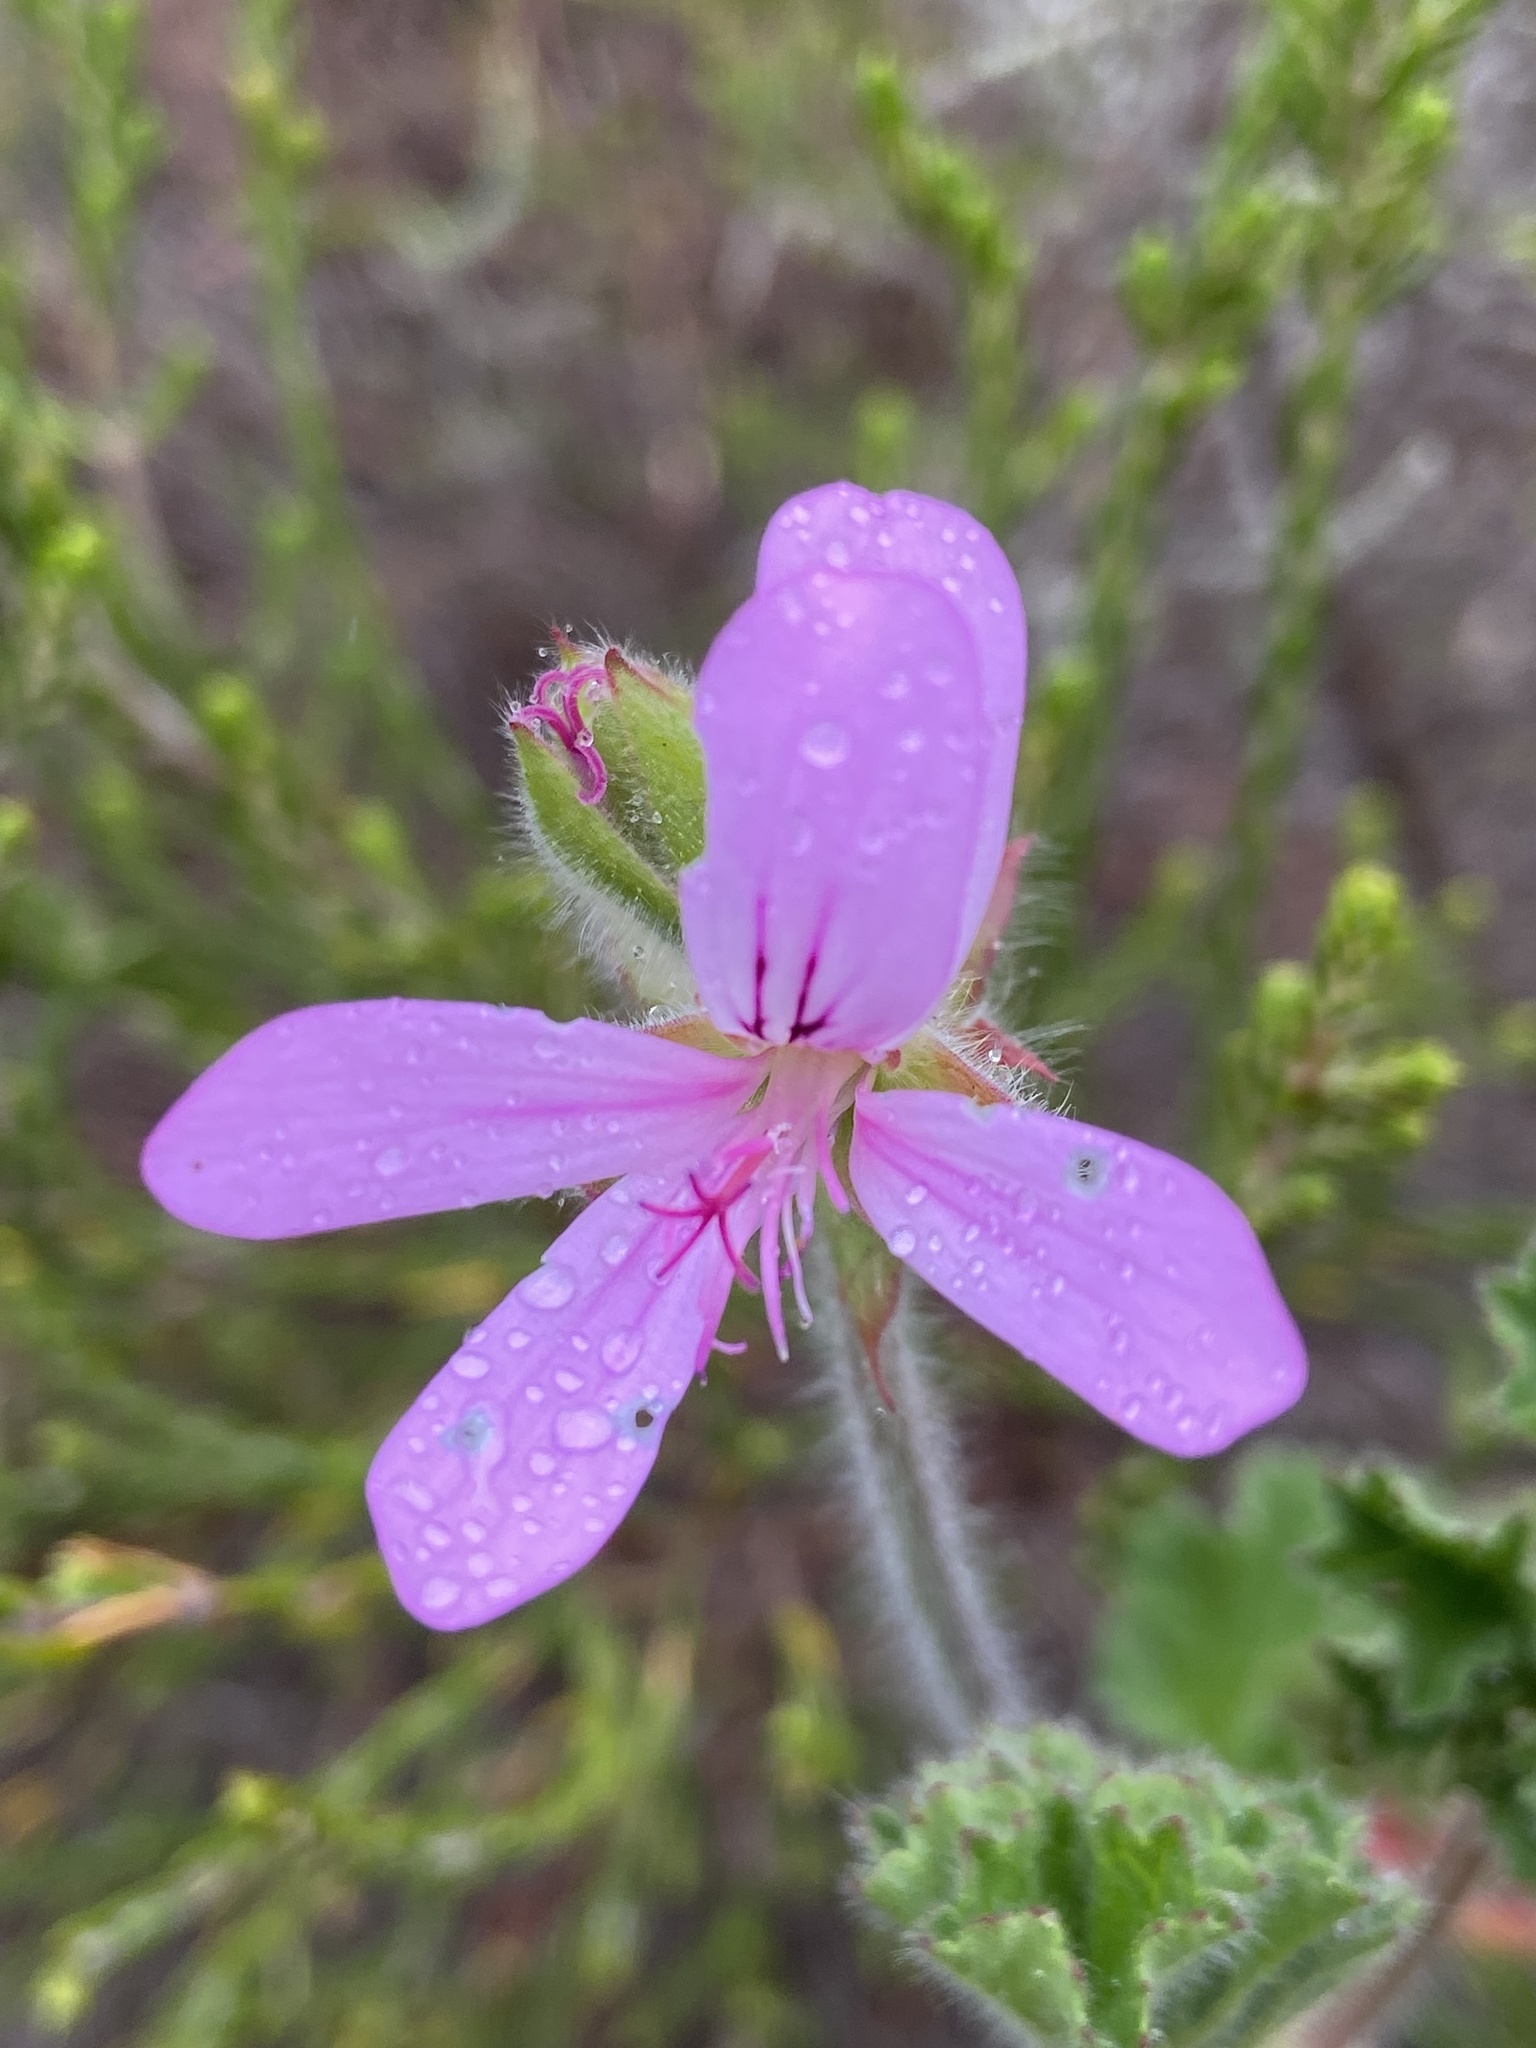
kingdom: Plantae
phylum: Tracheophyta
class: Magnoliopsida
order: Geraniales
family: Geraniaceae
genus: Pelargonium
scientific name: Pelargonium capitatum
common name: Rose scented geranium
